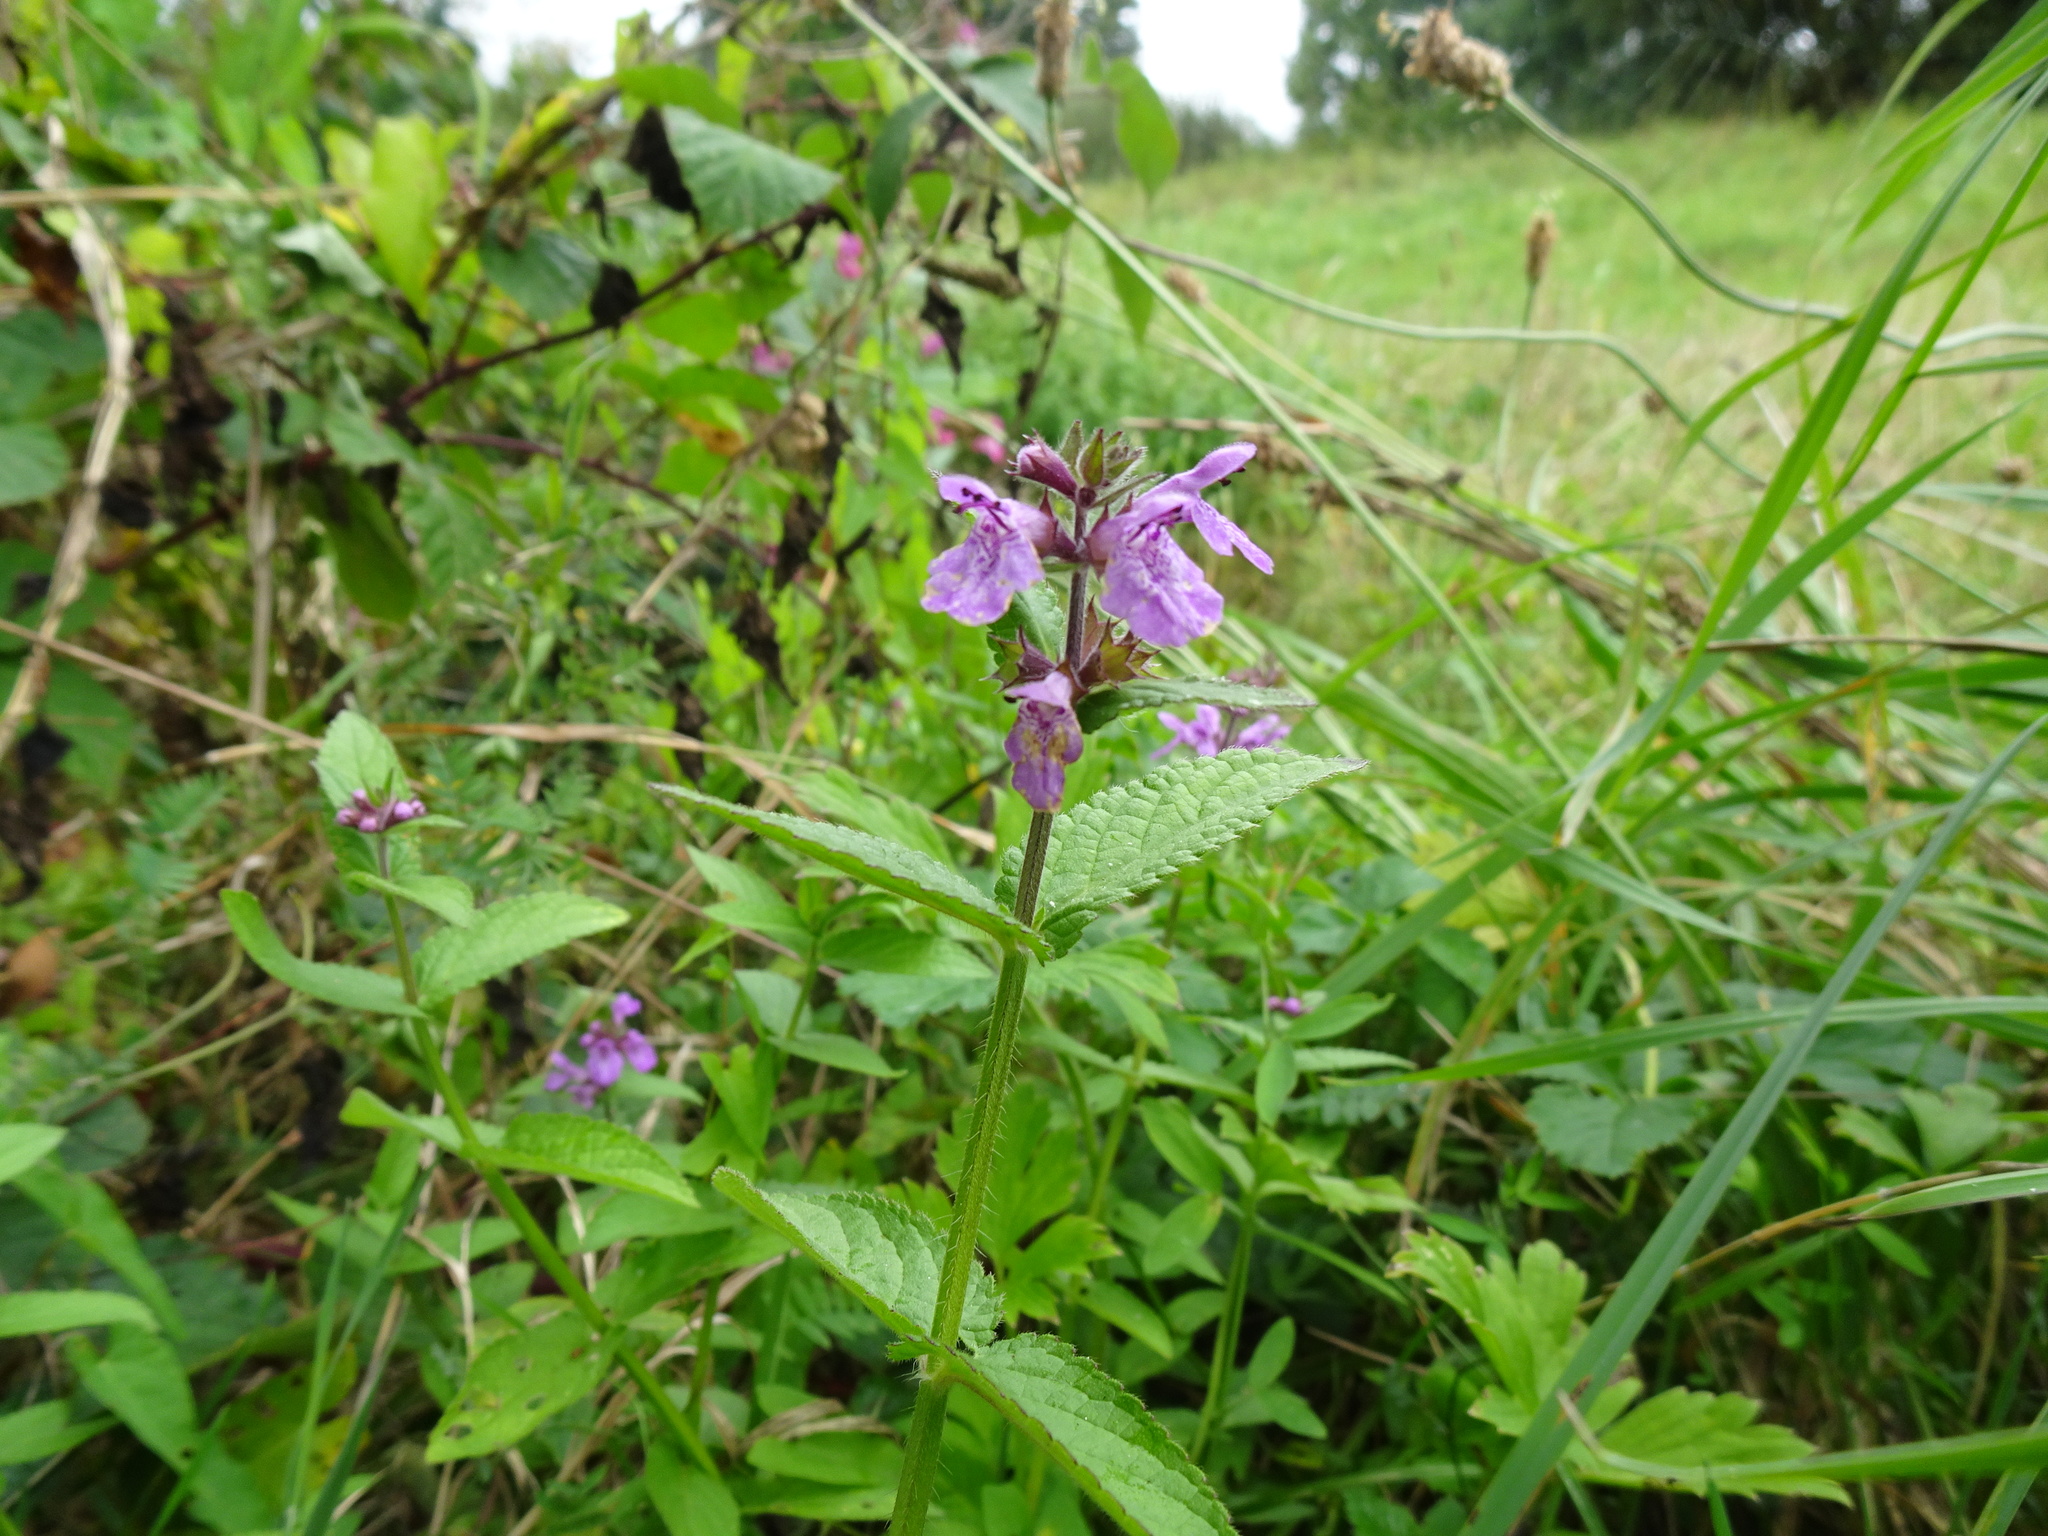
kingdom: Plantae
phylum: Tracheophyta
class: Magnoliopsida
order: Lamiales
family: Lamiaceae
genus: Stachys
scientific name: Stachys palustris
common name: Marsh woundwort
